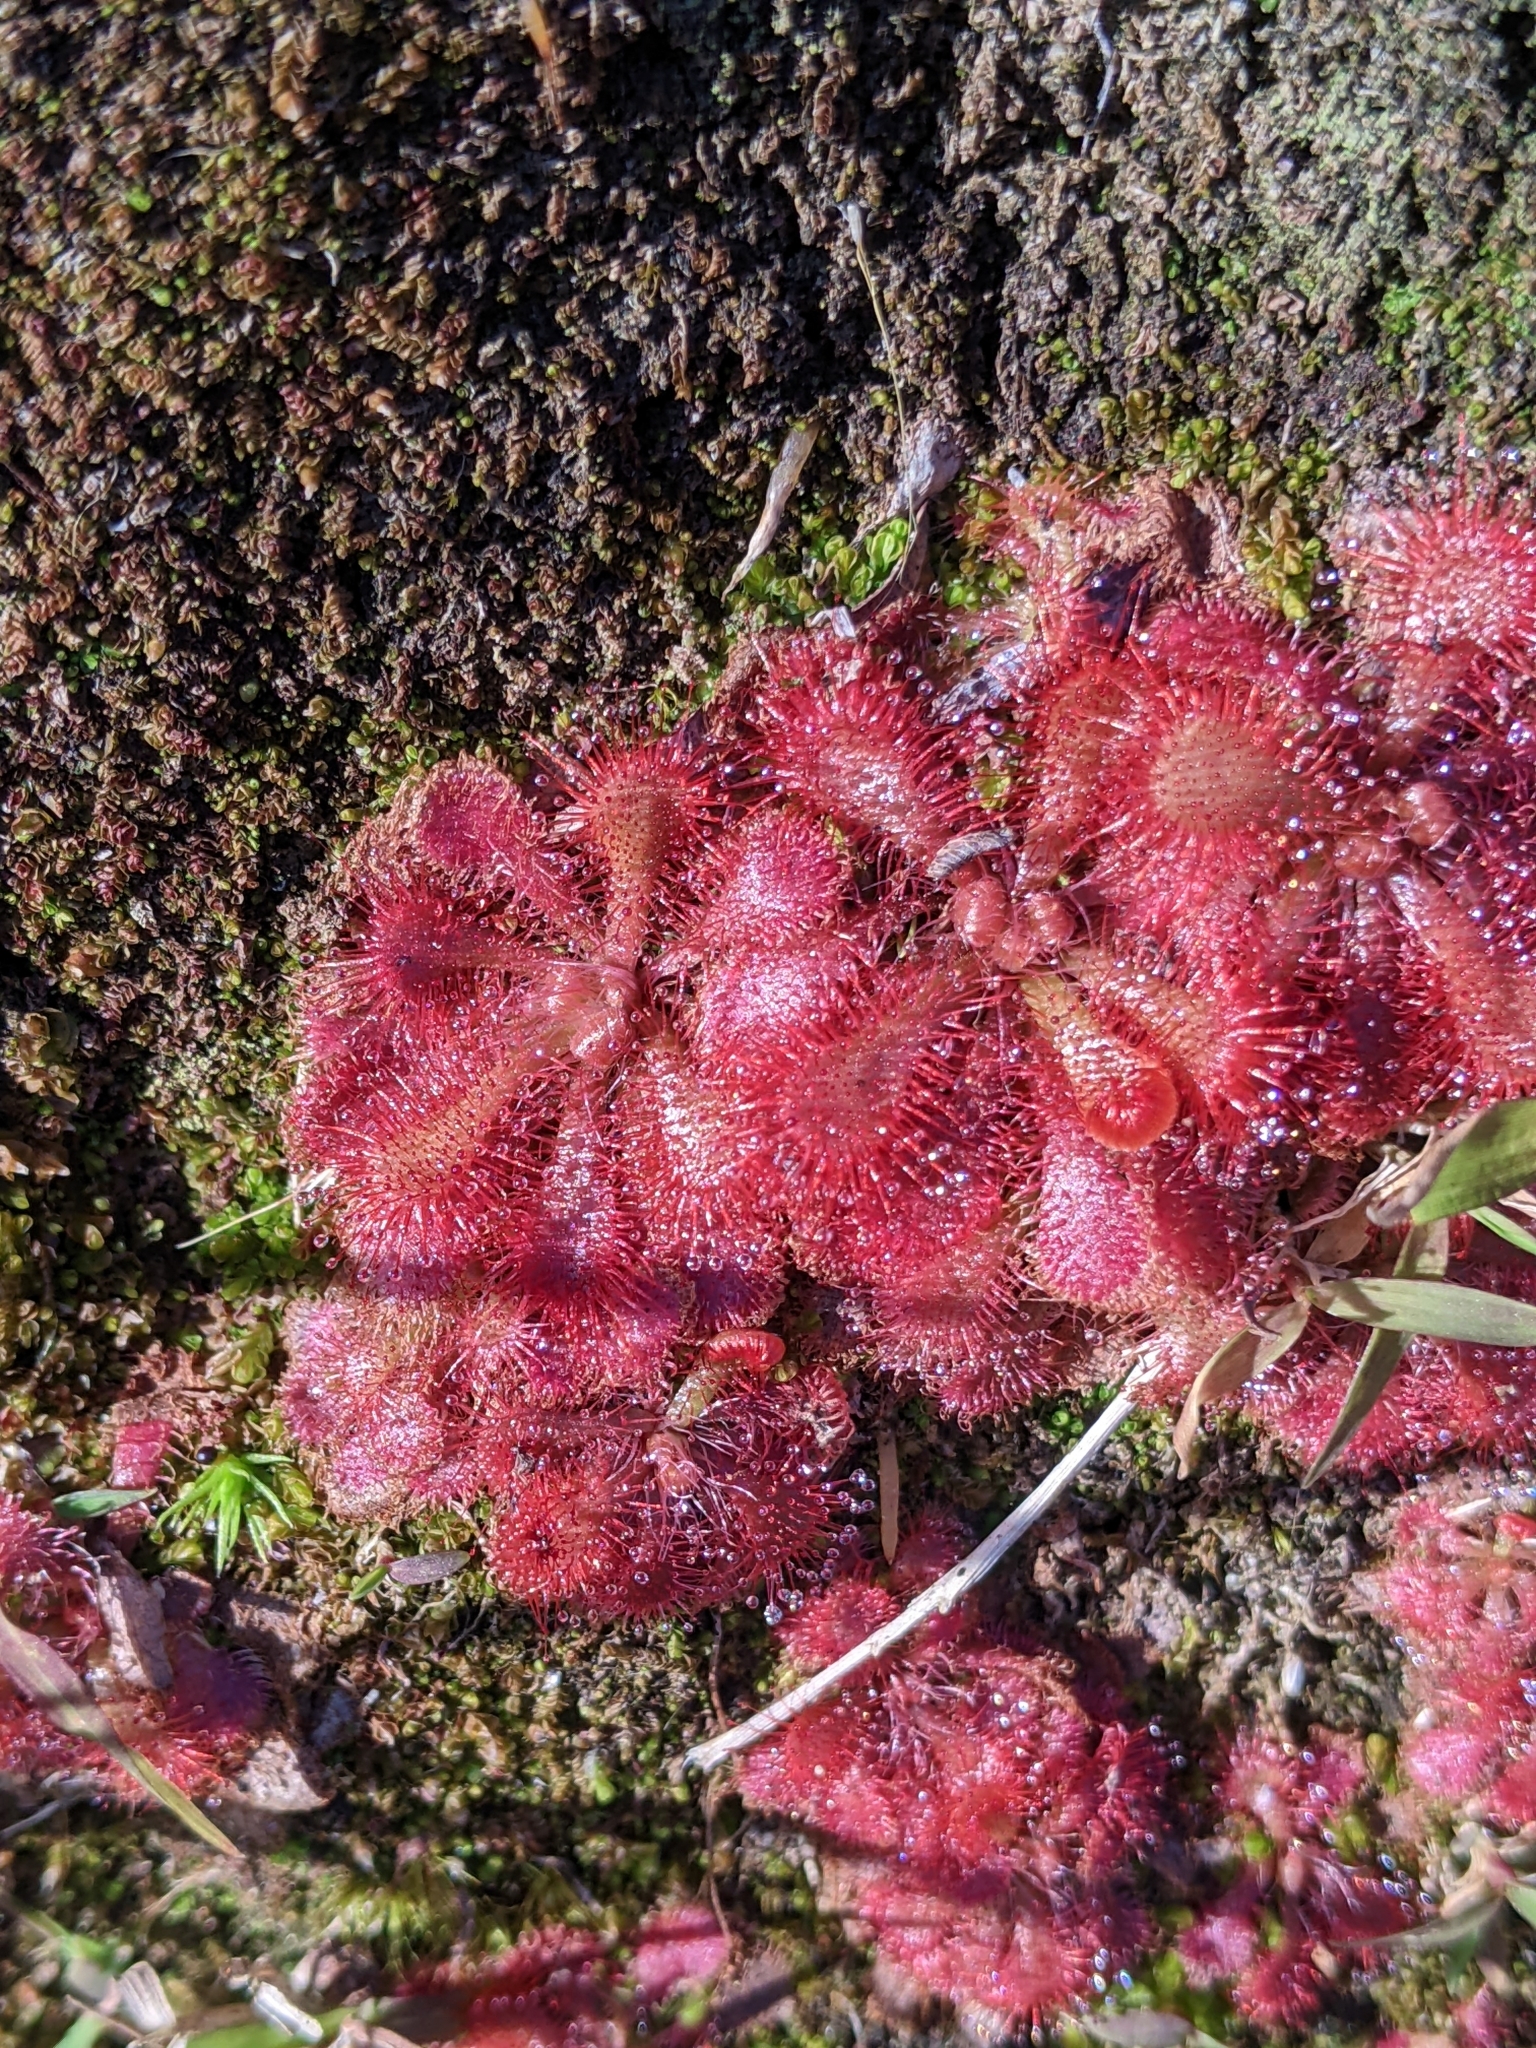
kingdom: Plantae
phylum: Tracheophyta
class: Magnoliopsida
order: Caryophyllales
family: Droseraceae
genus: Drosera
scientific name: Drosera spatulata
